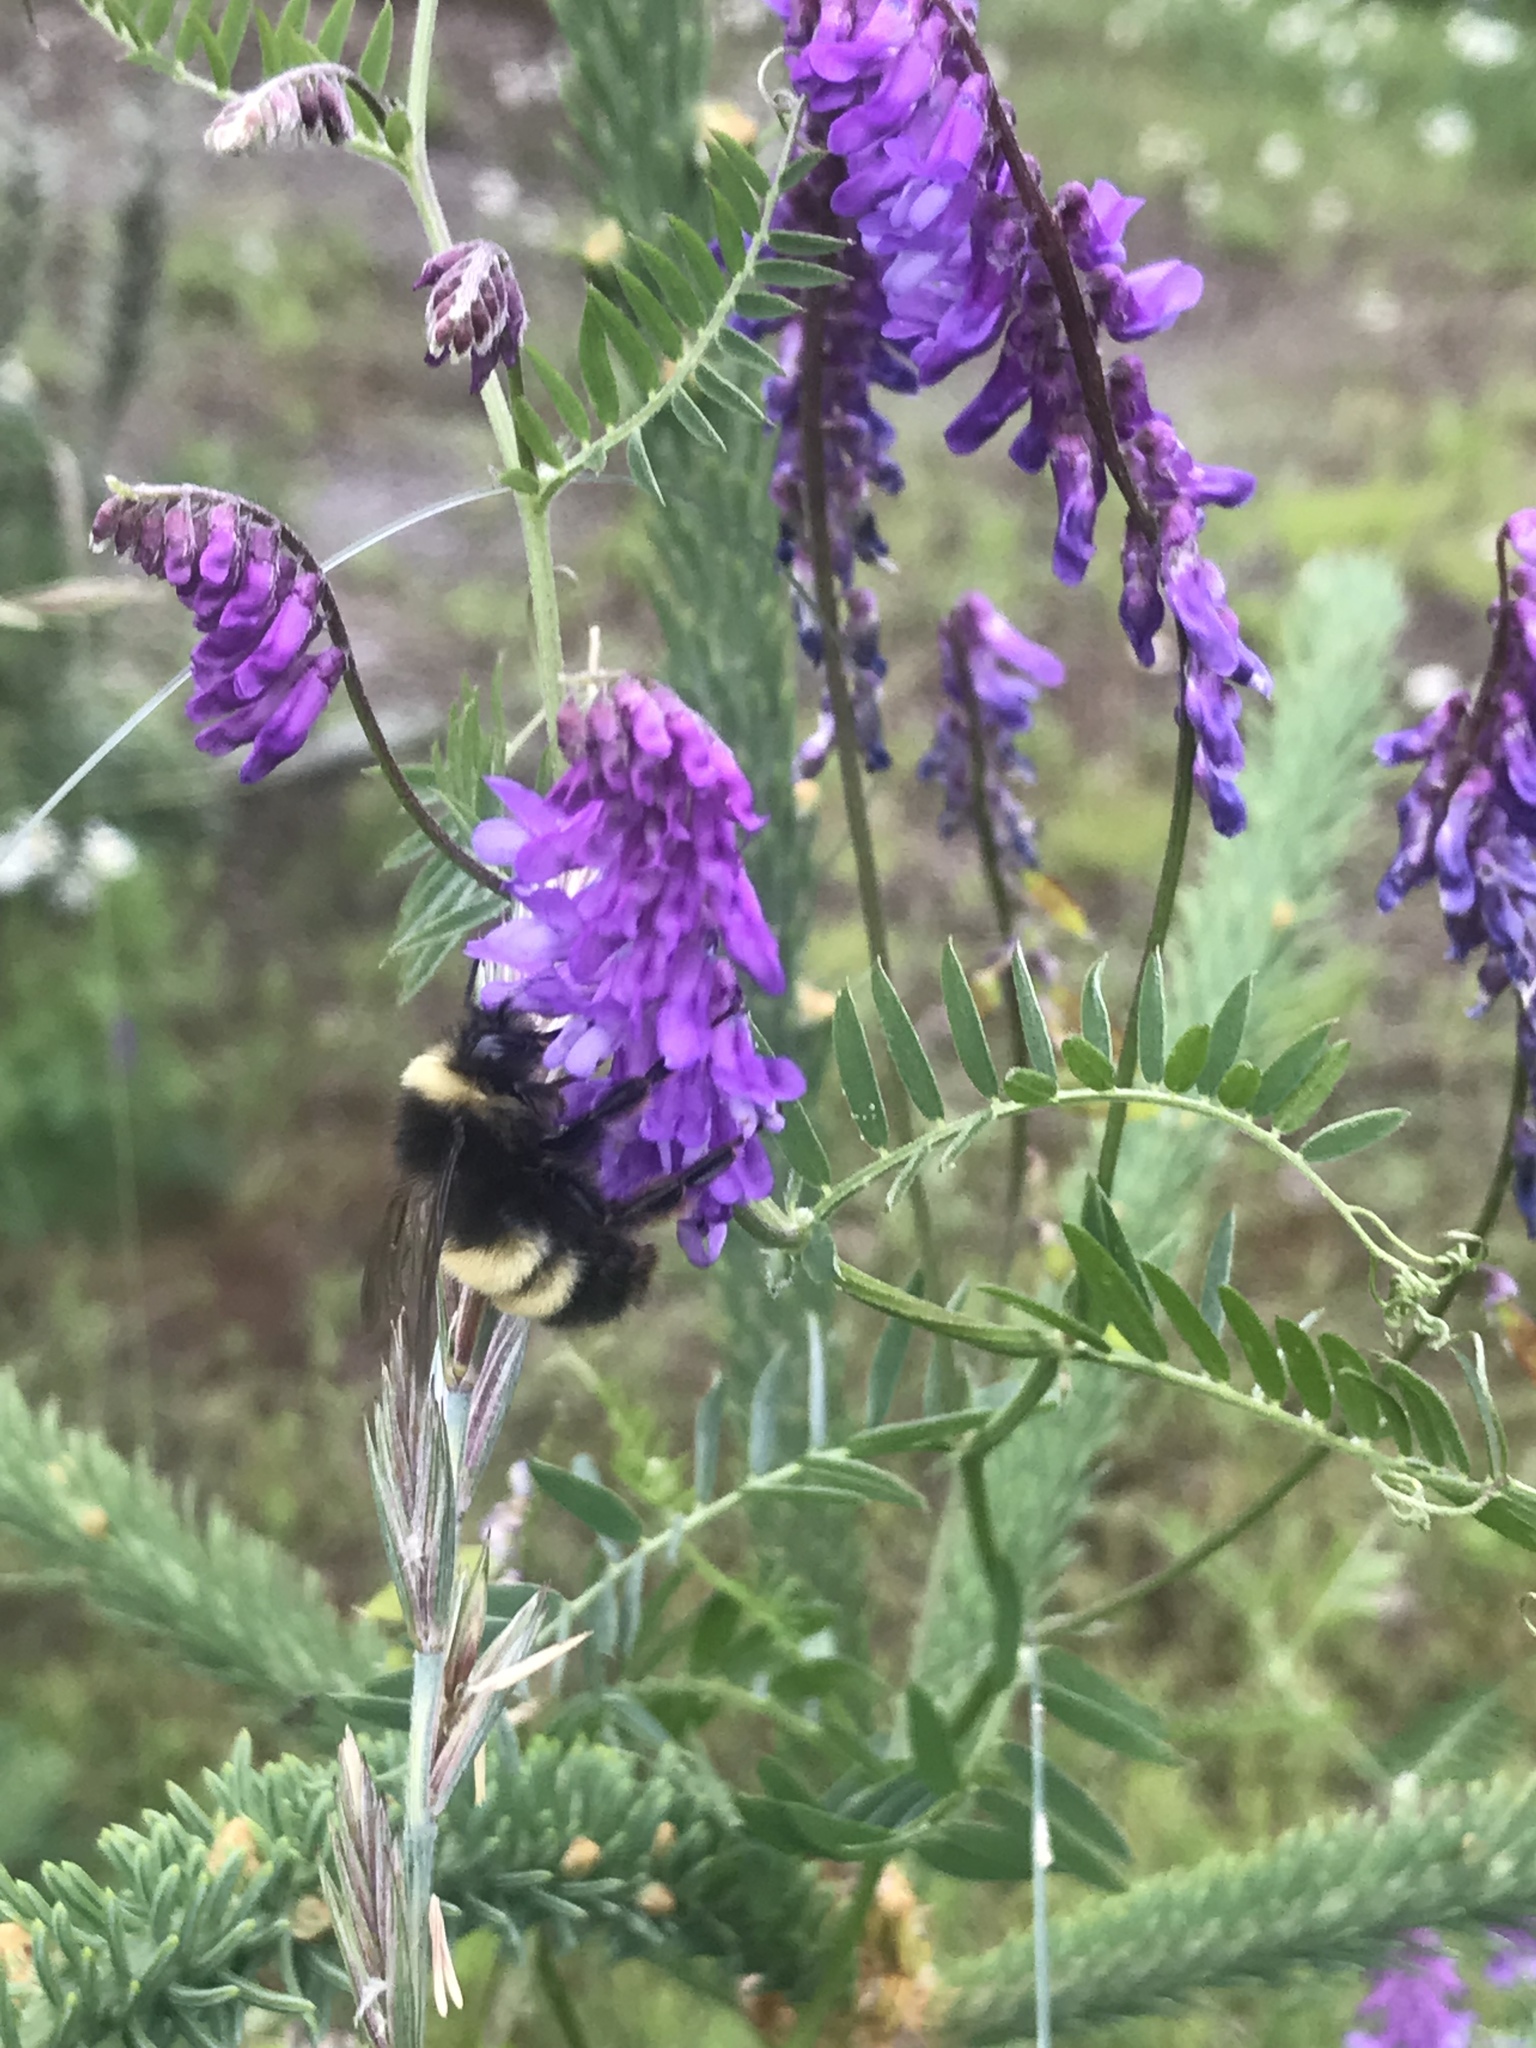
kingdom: Animalia
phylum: Arthropoda
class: Insecta
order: Hymenoptera
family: Apidae
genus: Bombus
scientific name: Bombus terricola
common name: Yellow-banded bumble bee
